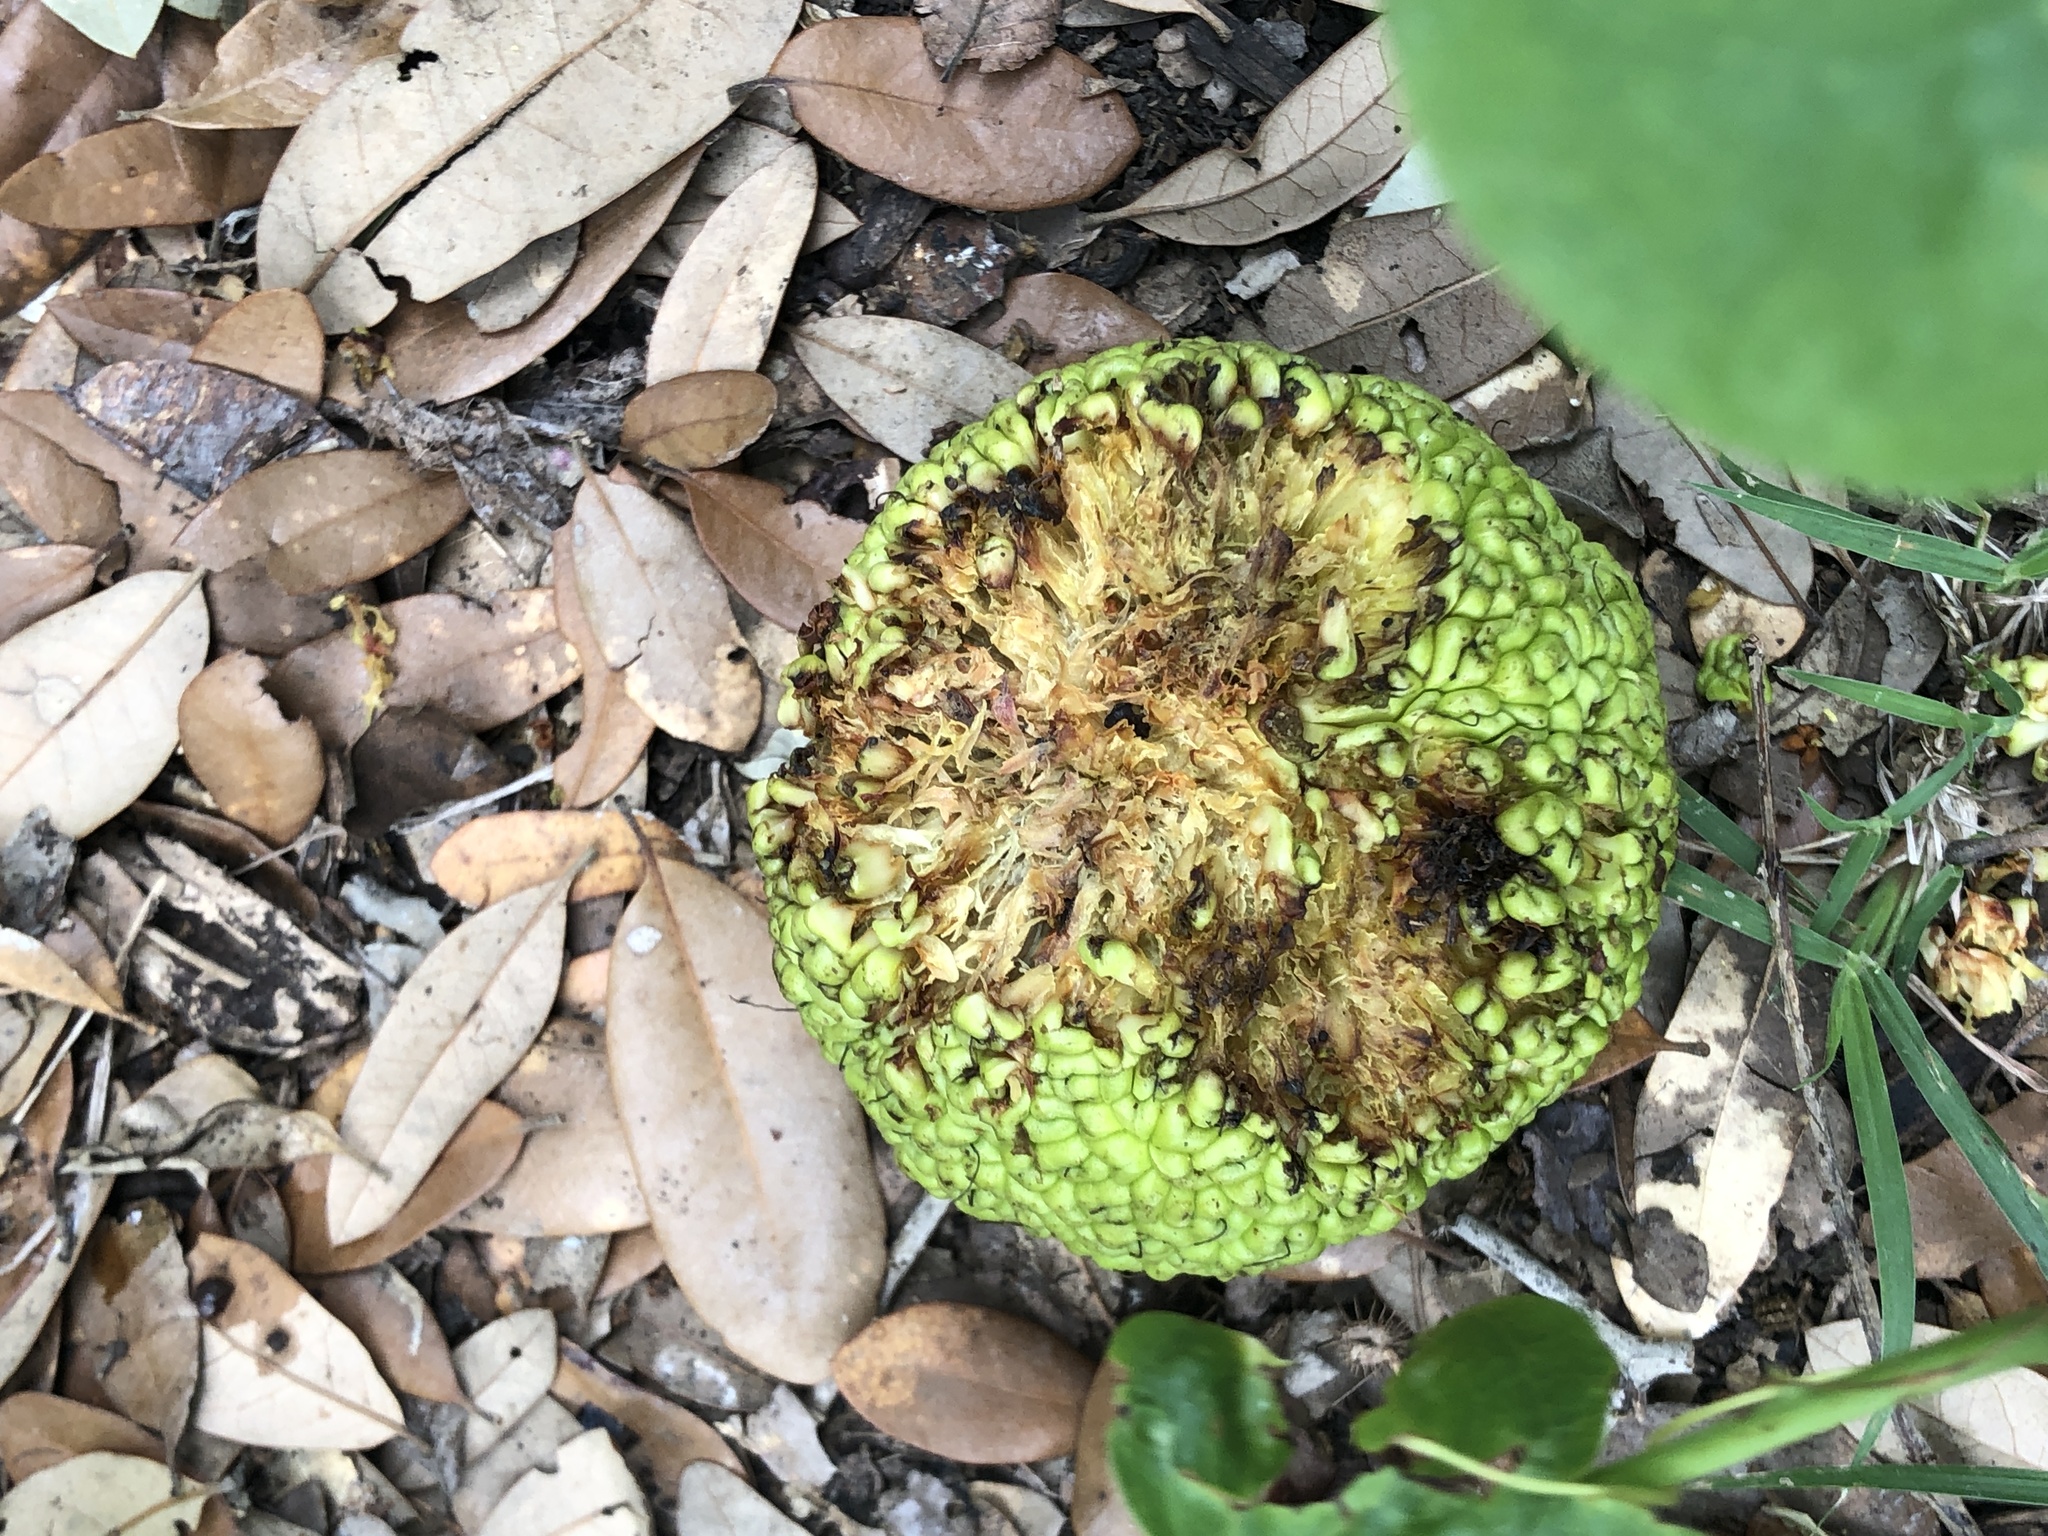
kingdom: Plantae
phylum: Tracheophyta
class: Magnoliopsida
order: Rosales
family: Moraceae
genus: Maclura
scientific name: Maclura pomifera
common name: Osage-orange
